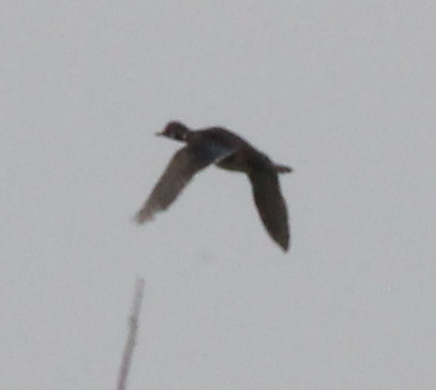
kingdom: Animalia
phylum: Chordata
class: Aves
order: Anseriformes
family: Anatidae
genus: Aix
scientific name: Aix sponsa
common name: Wood duck
